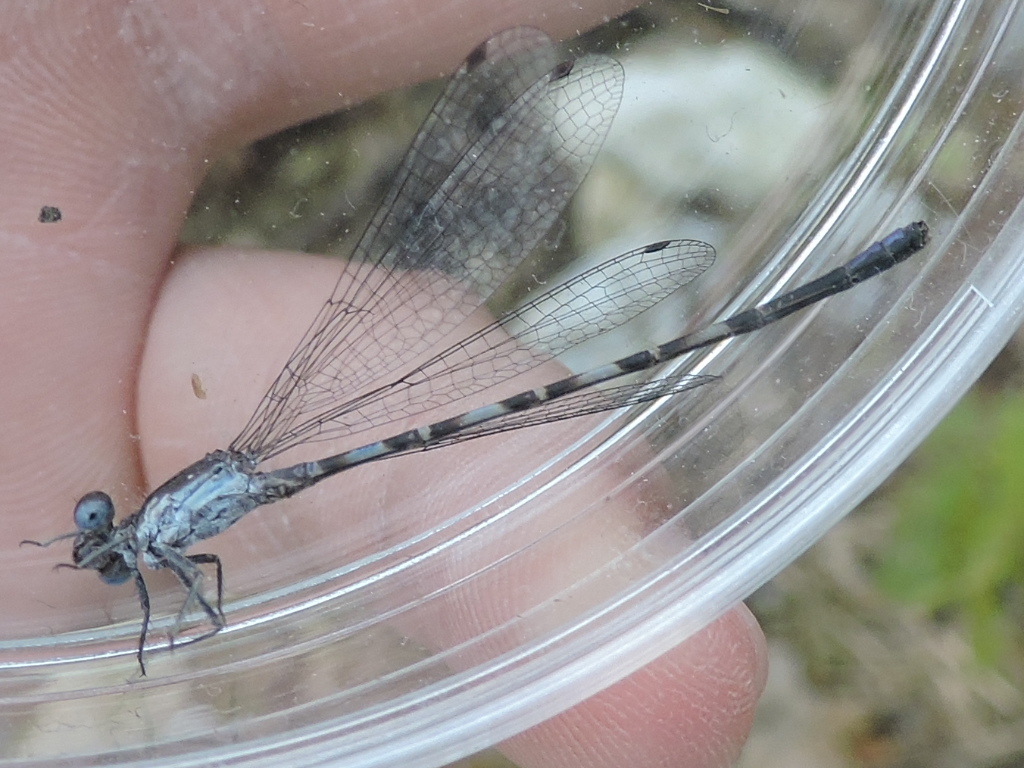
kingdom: Animalia
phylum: Arthropoda
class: Insecta
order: Odonata
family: Coenagrionidae
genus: Argia
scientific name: Argia immunda
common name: Kiowa dancer
